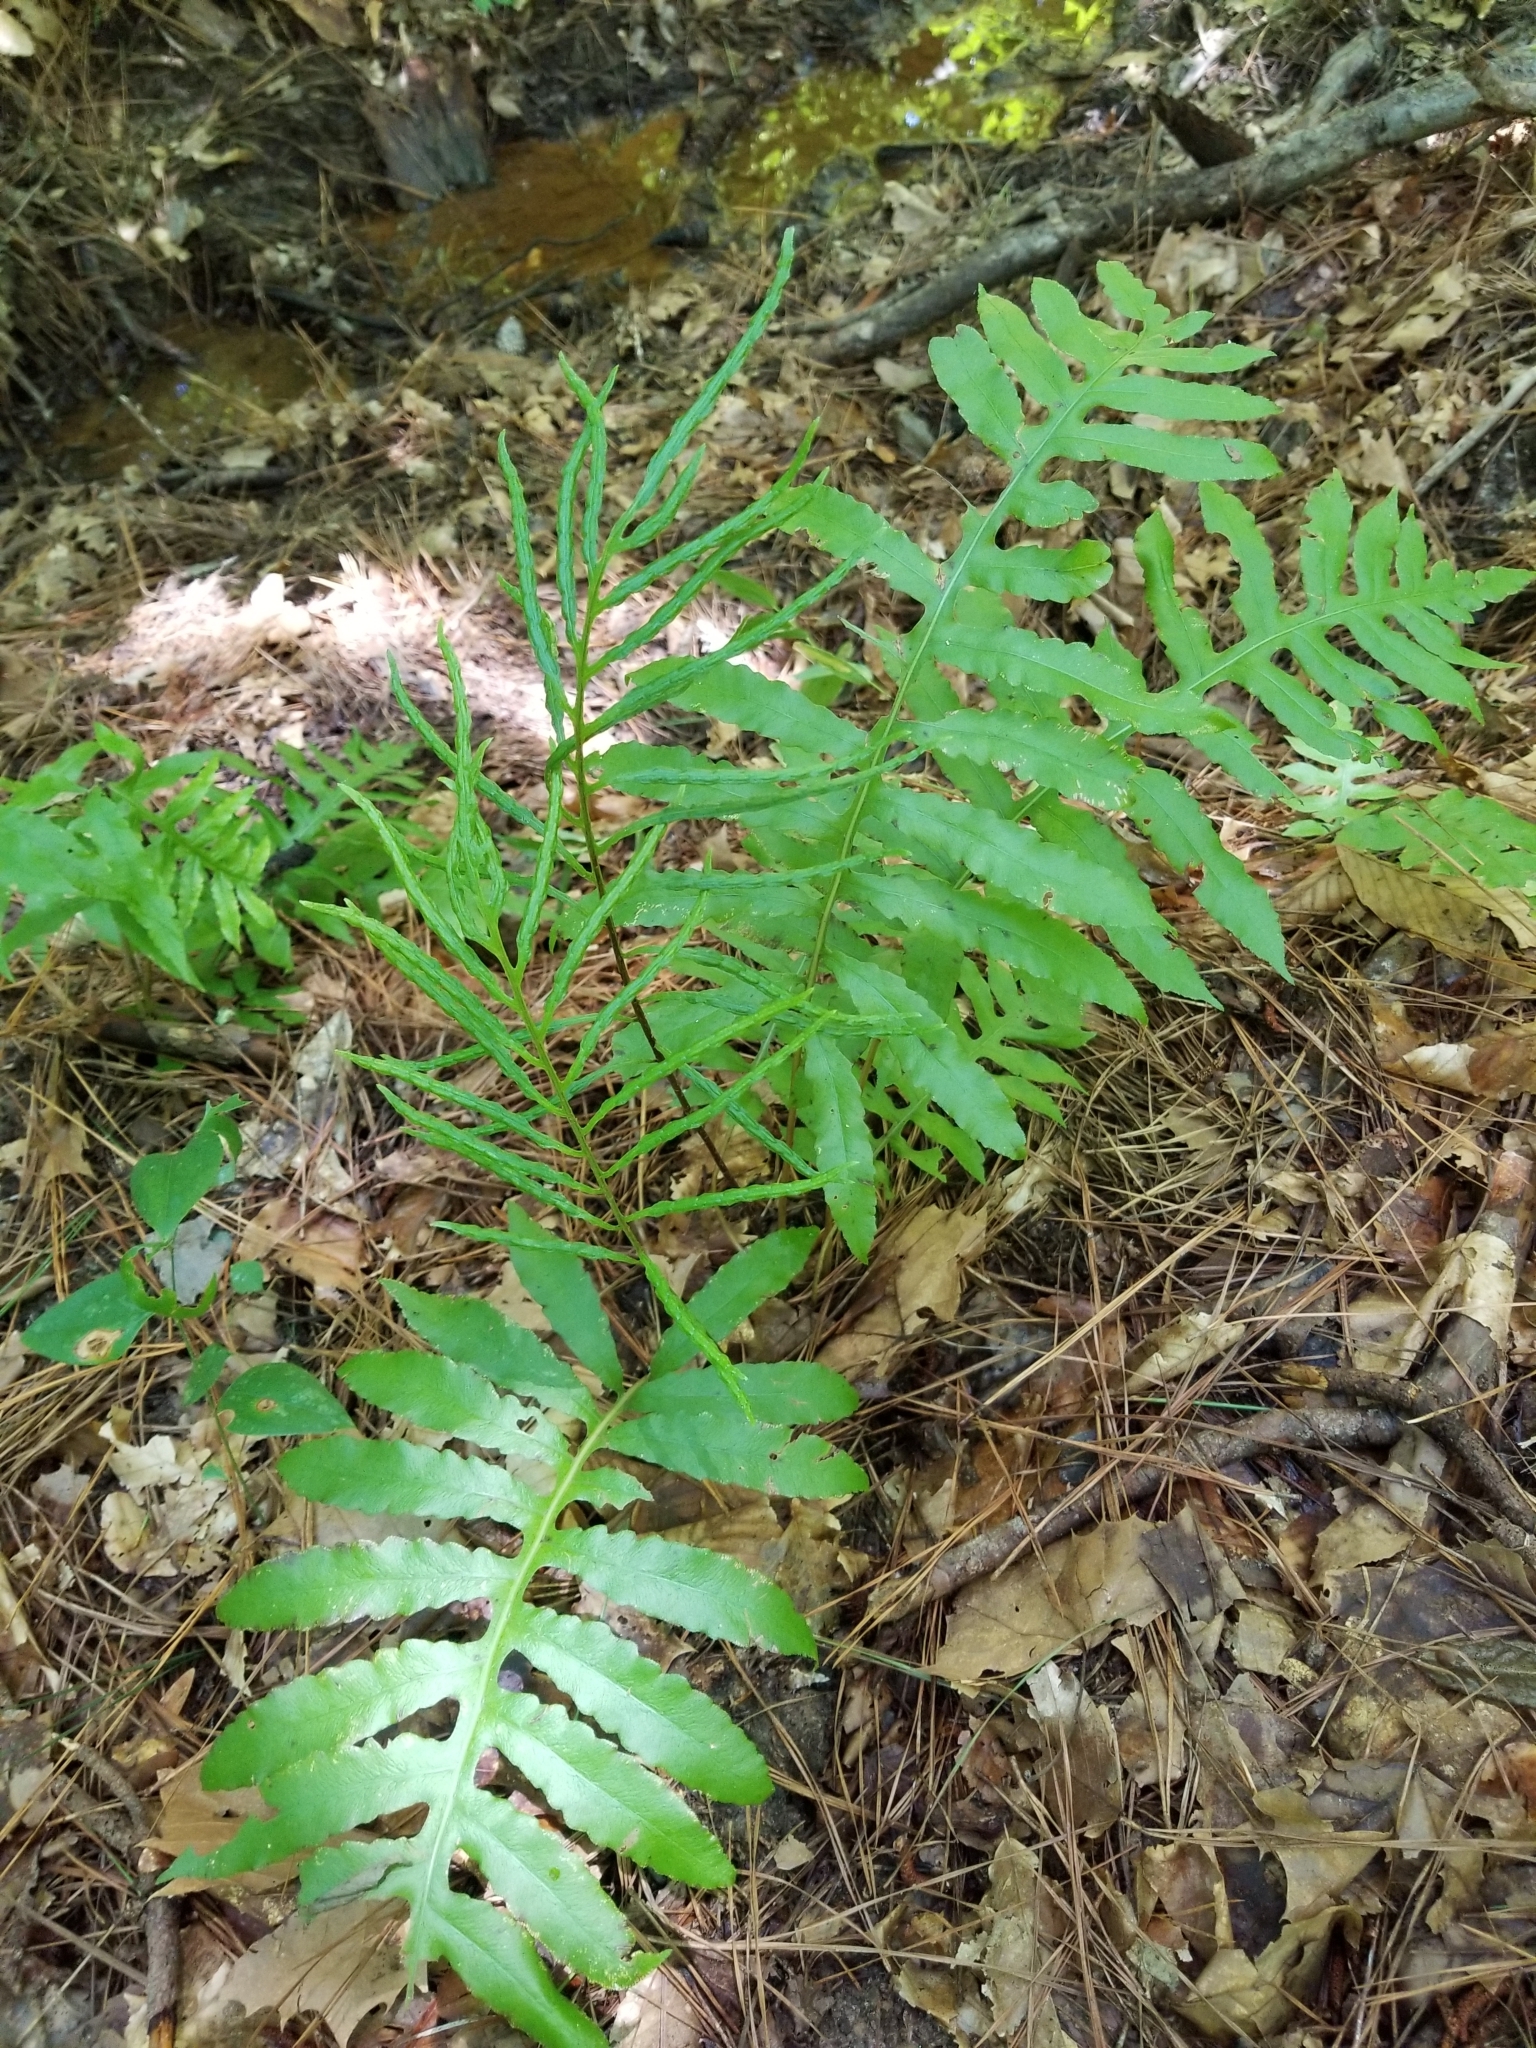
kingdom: Plantae
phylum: Tracheophyta
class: Polypodiopsida
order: Polypodiales
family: Blechnaceae
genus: Lorinseria
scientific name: Lorinseria areolata
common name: Dwarf chain fern
